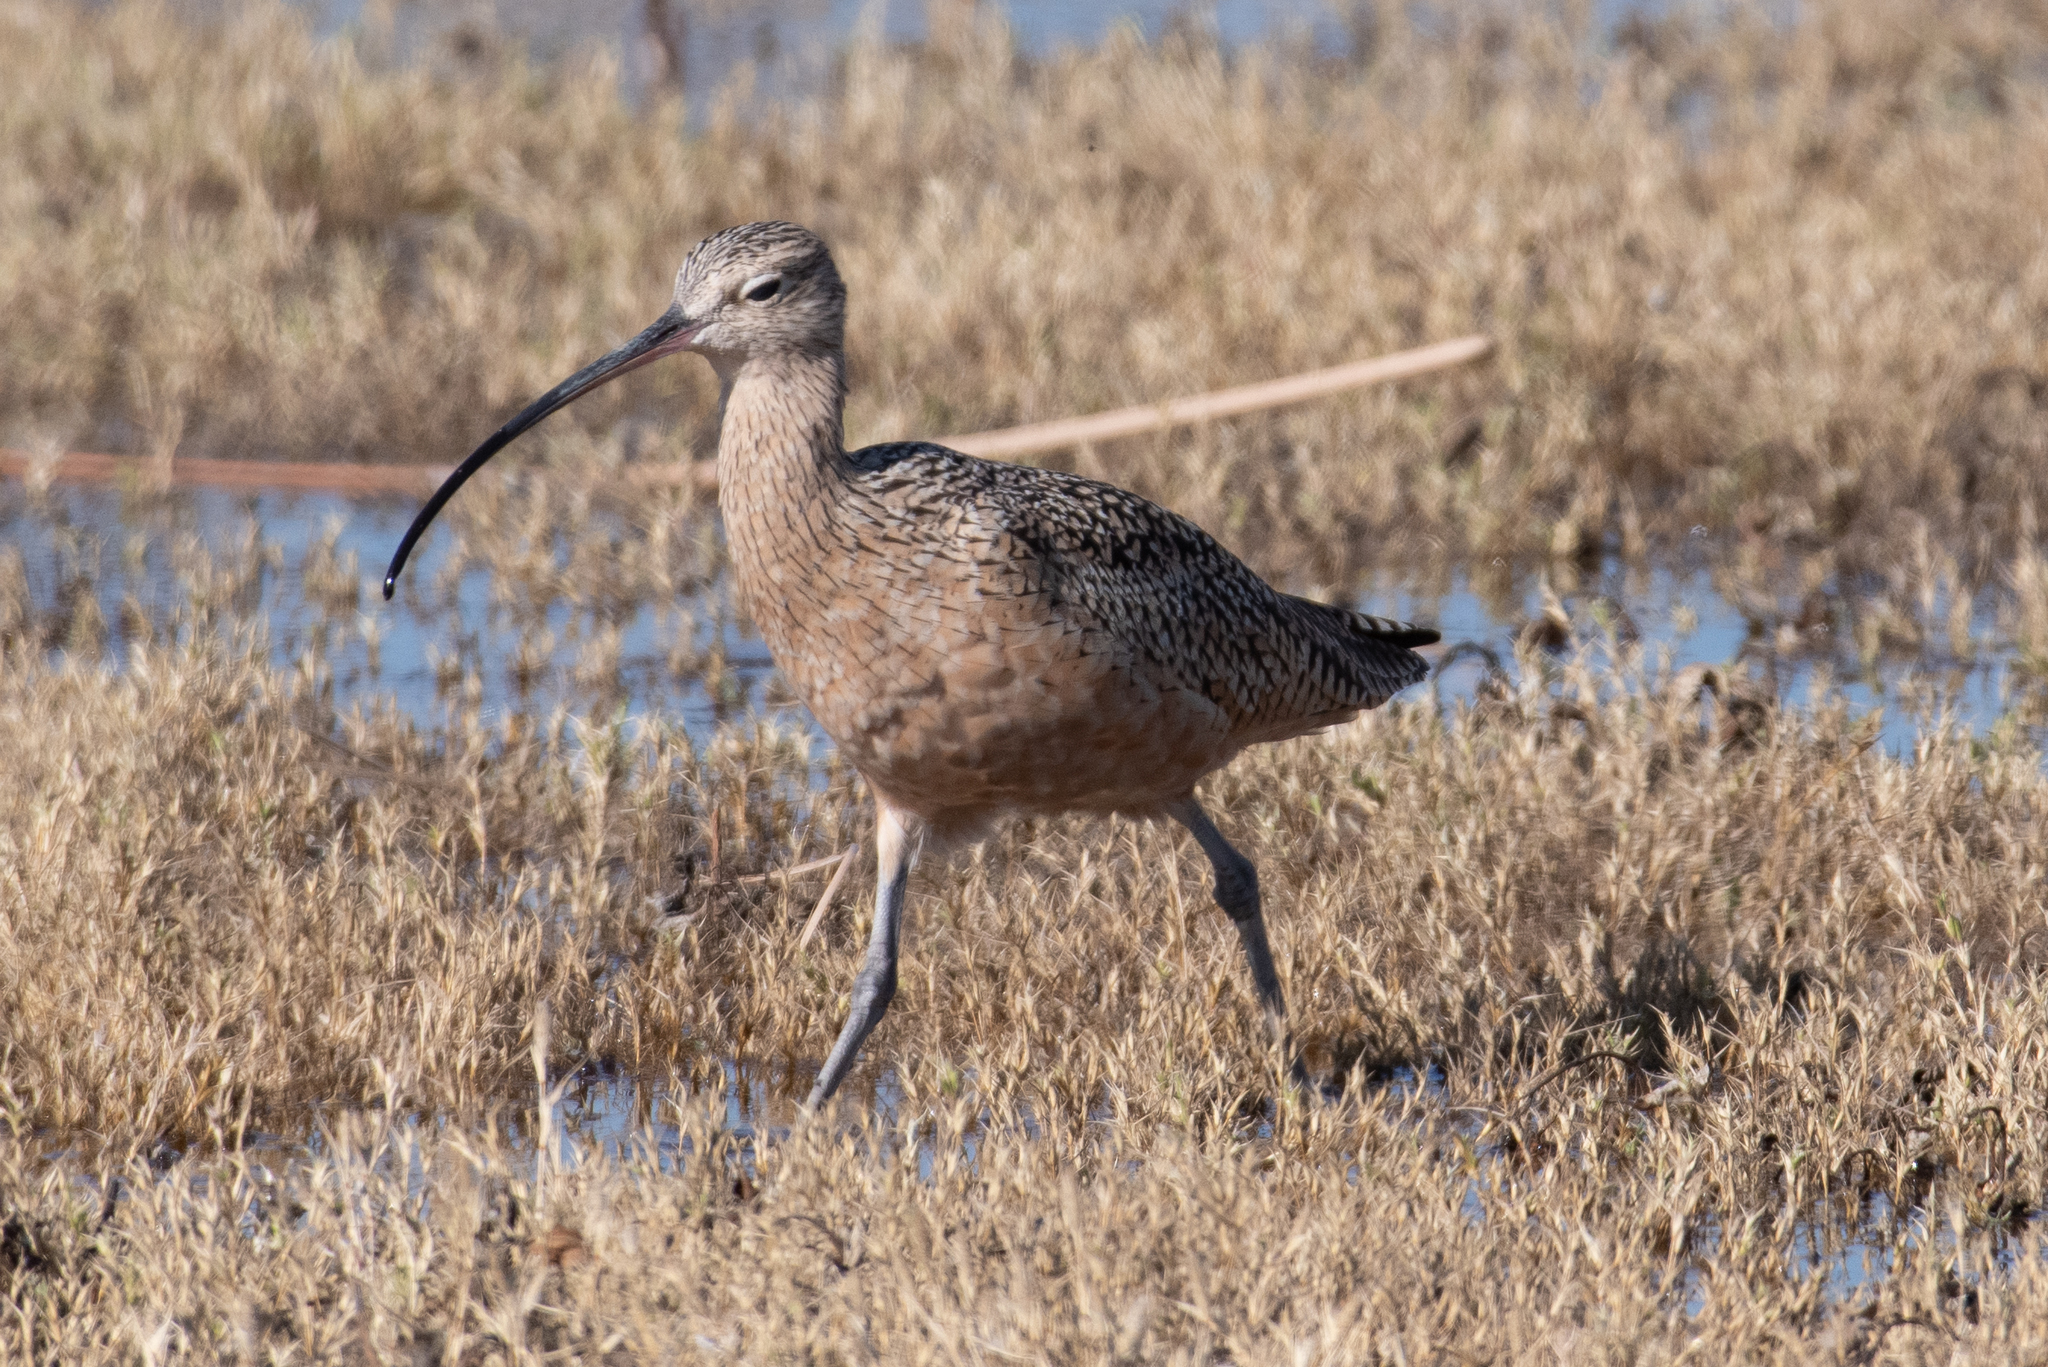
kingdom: Animalia
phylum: Chordata
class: Aves
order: Charadriiformes
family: Scolopacidae
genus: Numenius
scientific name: Numenius americanus
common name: Long-billed curlew
